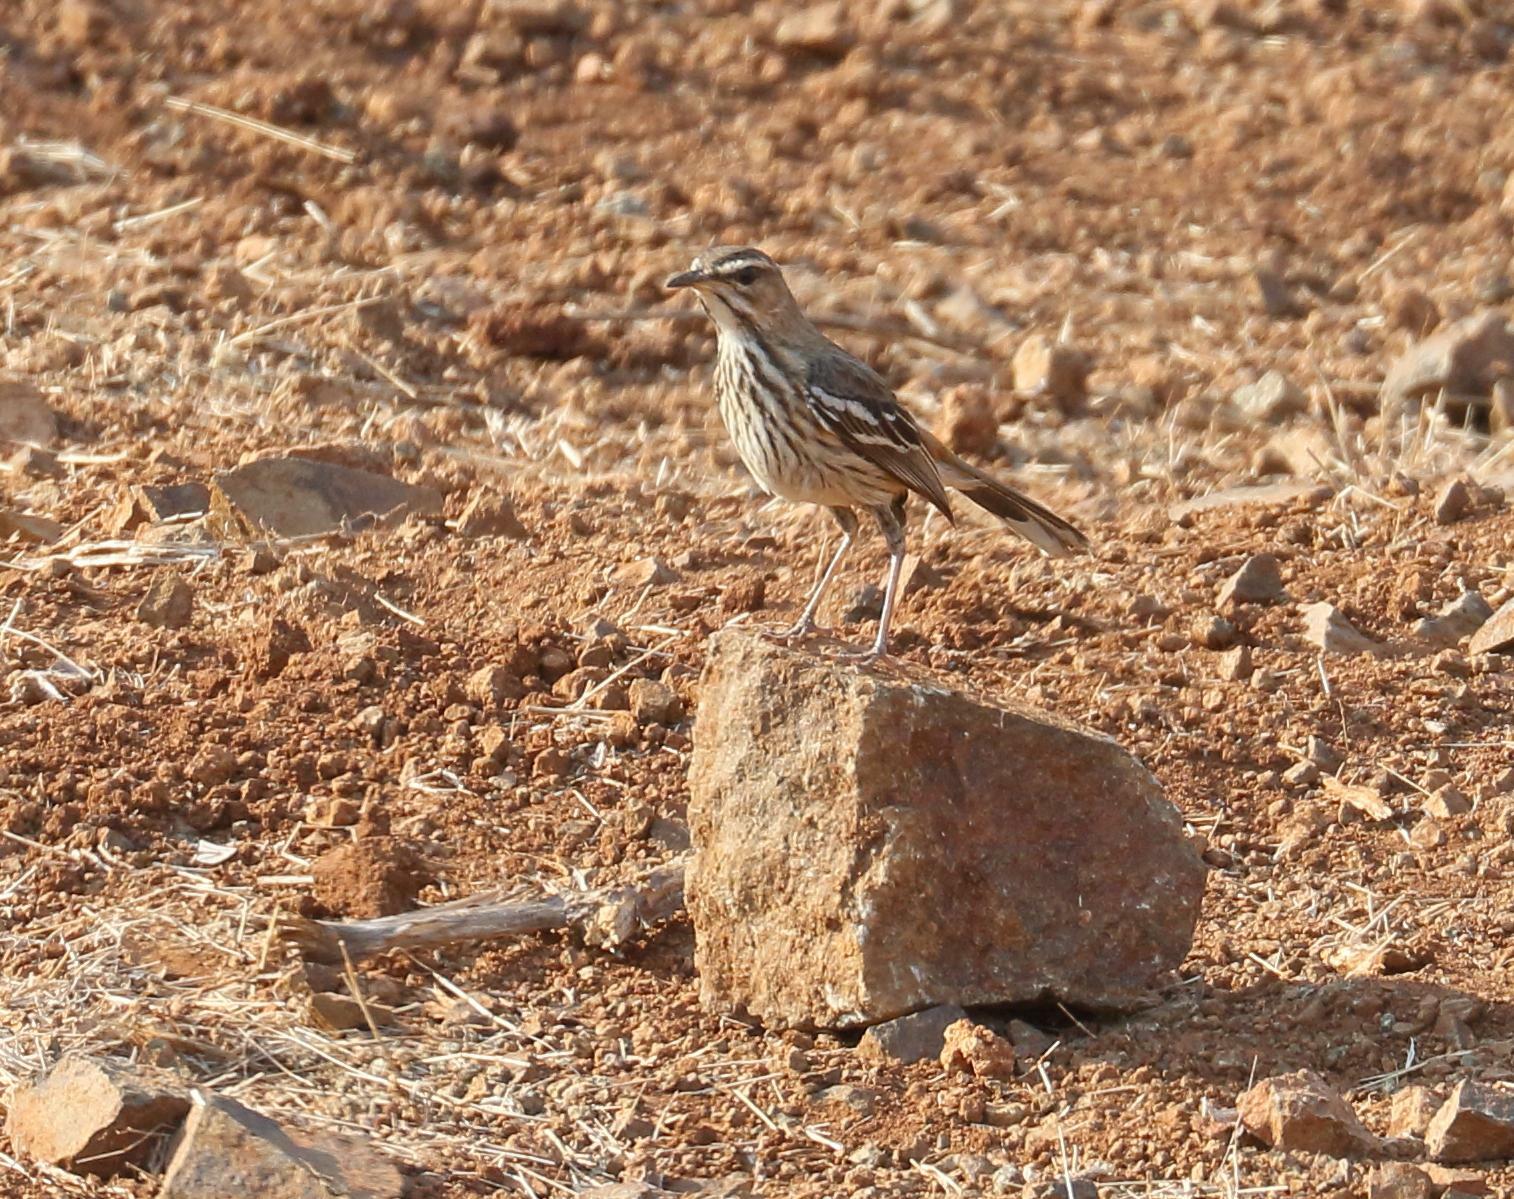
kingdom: Animalia
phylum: Chordata
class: Aves
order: Passeriformes
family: Muscicapidae
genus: Erythropygia
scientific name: Erythropygia leucophrys
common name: White-browed scrub robin
